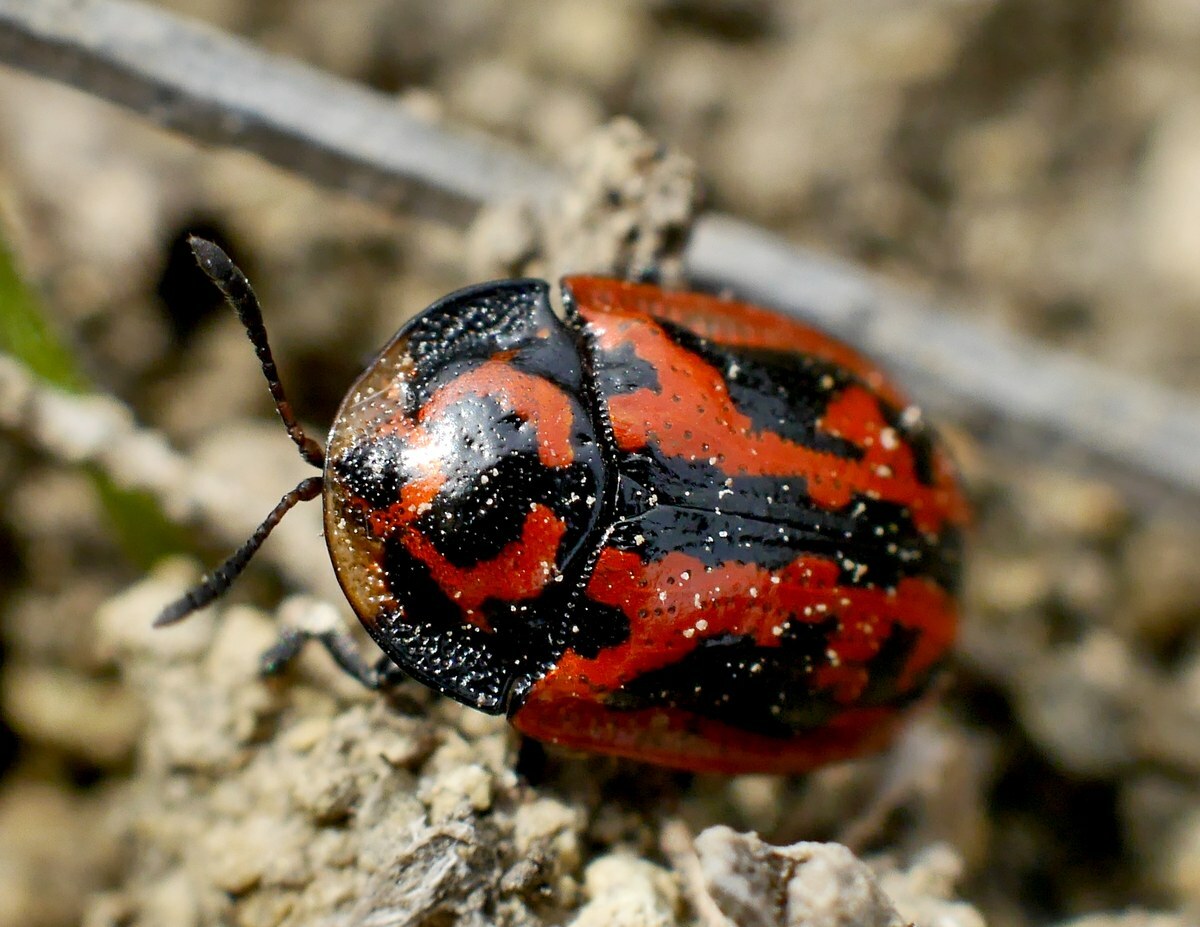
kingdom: Animalia
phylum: Arthropoda
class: Insecta
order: Coleoptera
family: Chrysomelidae
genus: Pilemostoma
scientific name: Pilemostoma fastuosa
